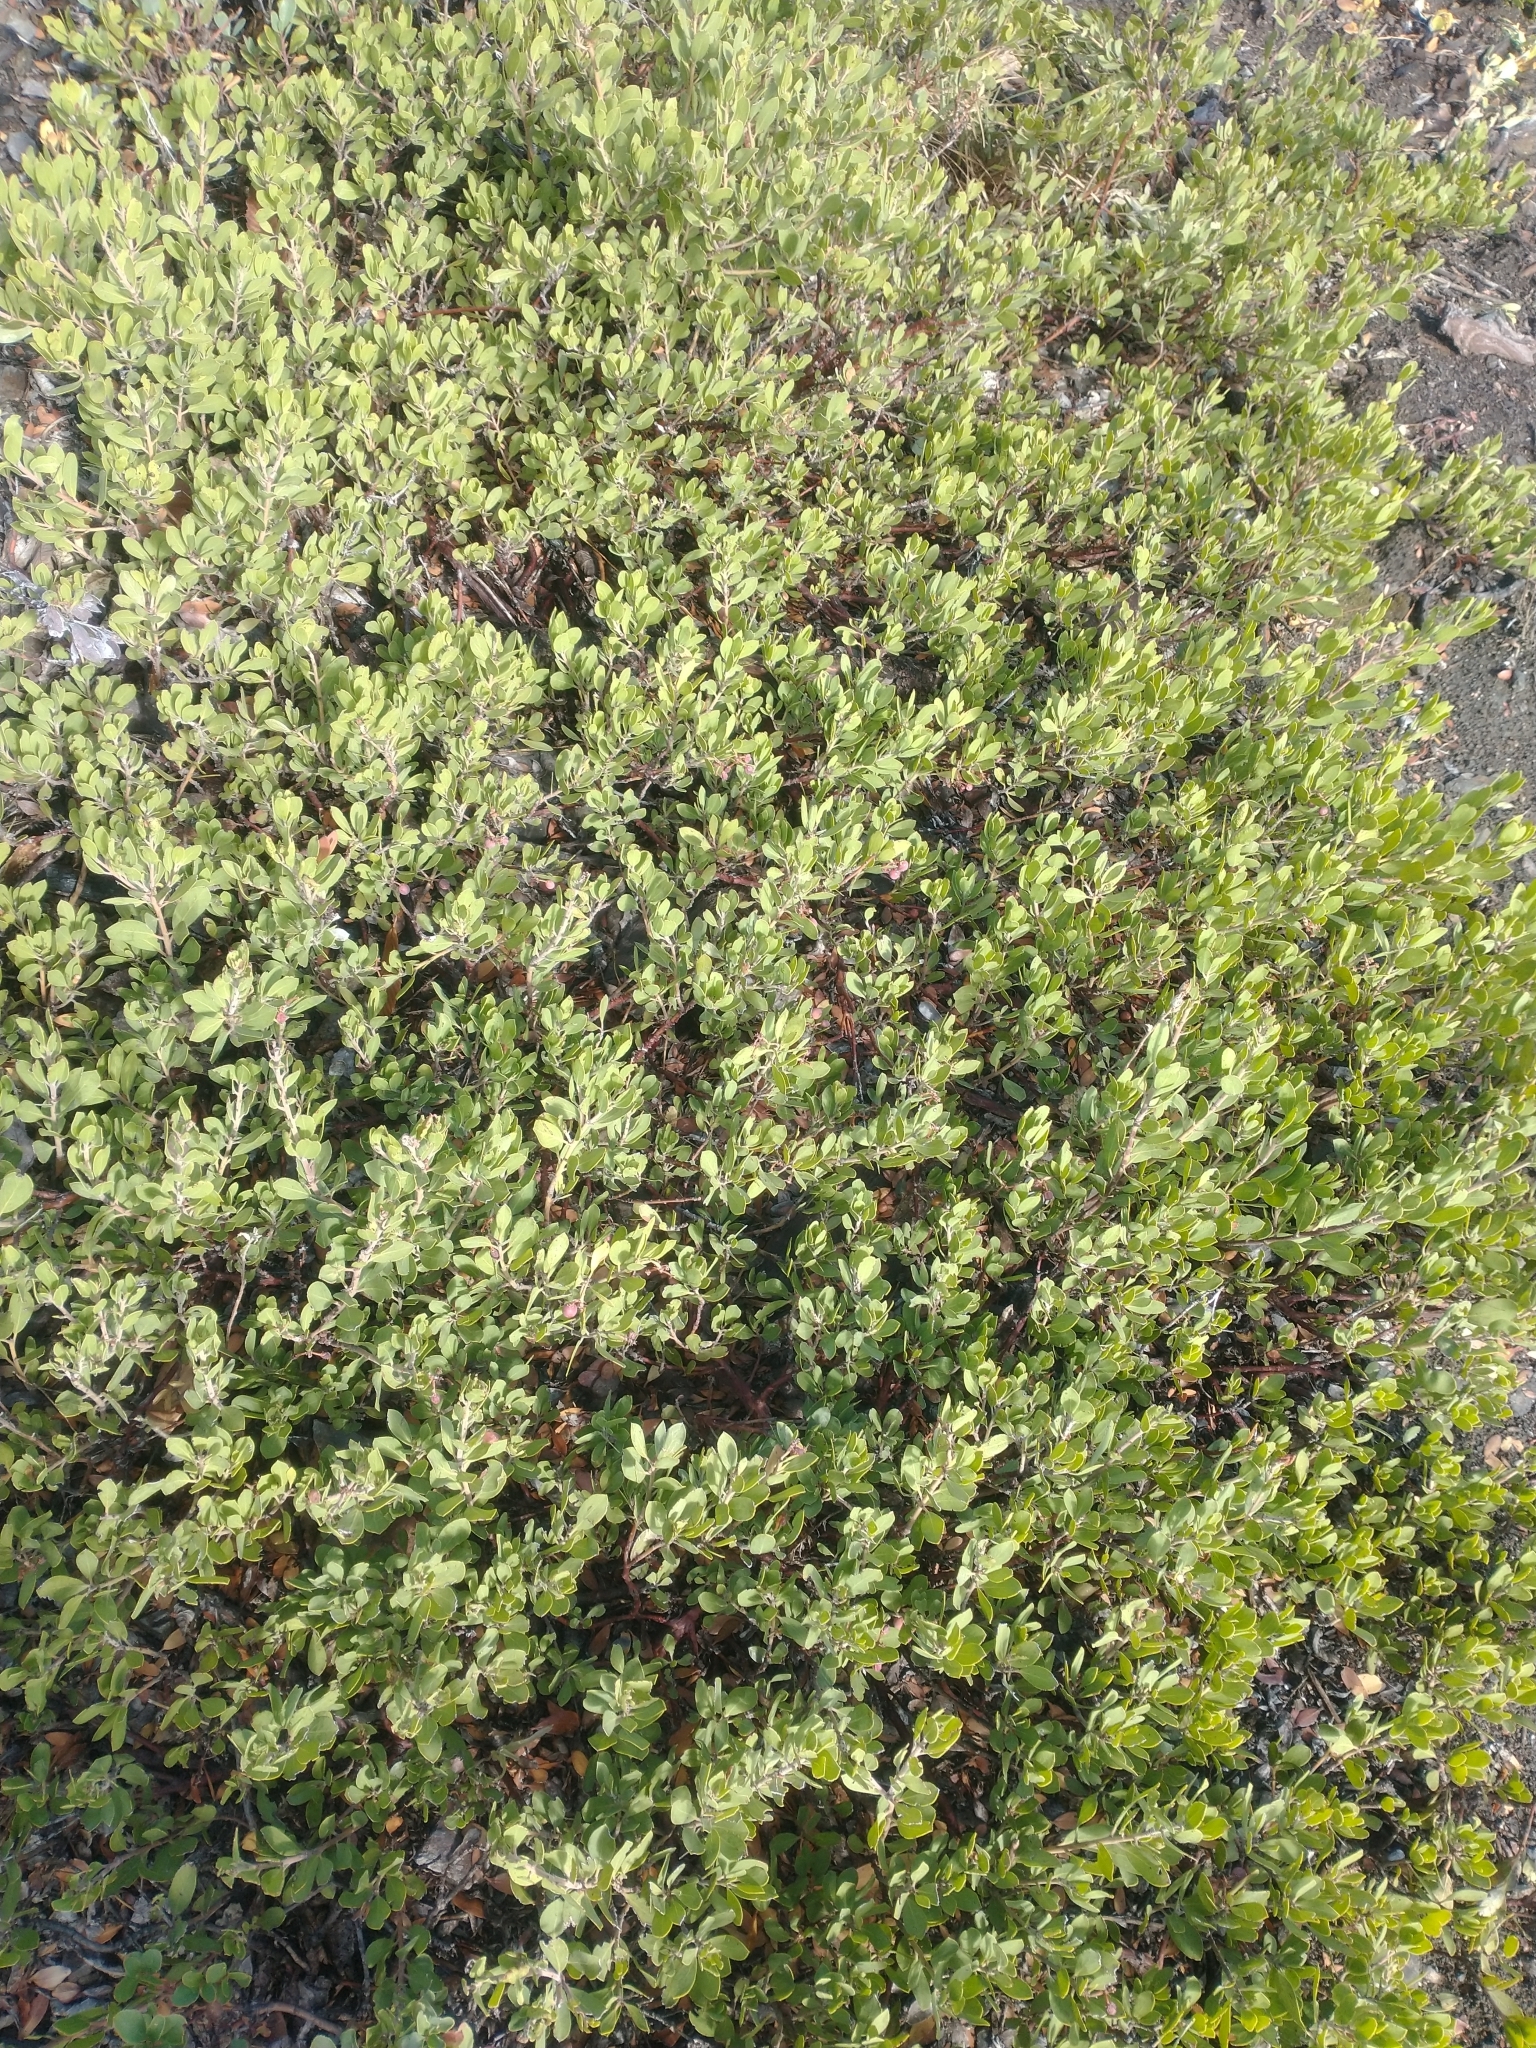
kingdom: Plantae
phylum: Tracheophyta
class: Magnoliopsida
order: Ericales
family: Ericaceae
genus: Arctostaphylos
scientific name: Arctostaphylos nevadensis
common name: Pinemat manzanita
